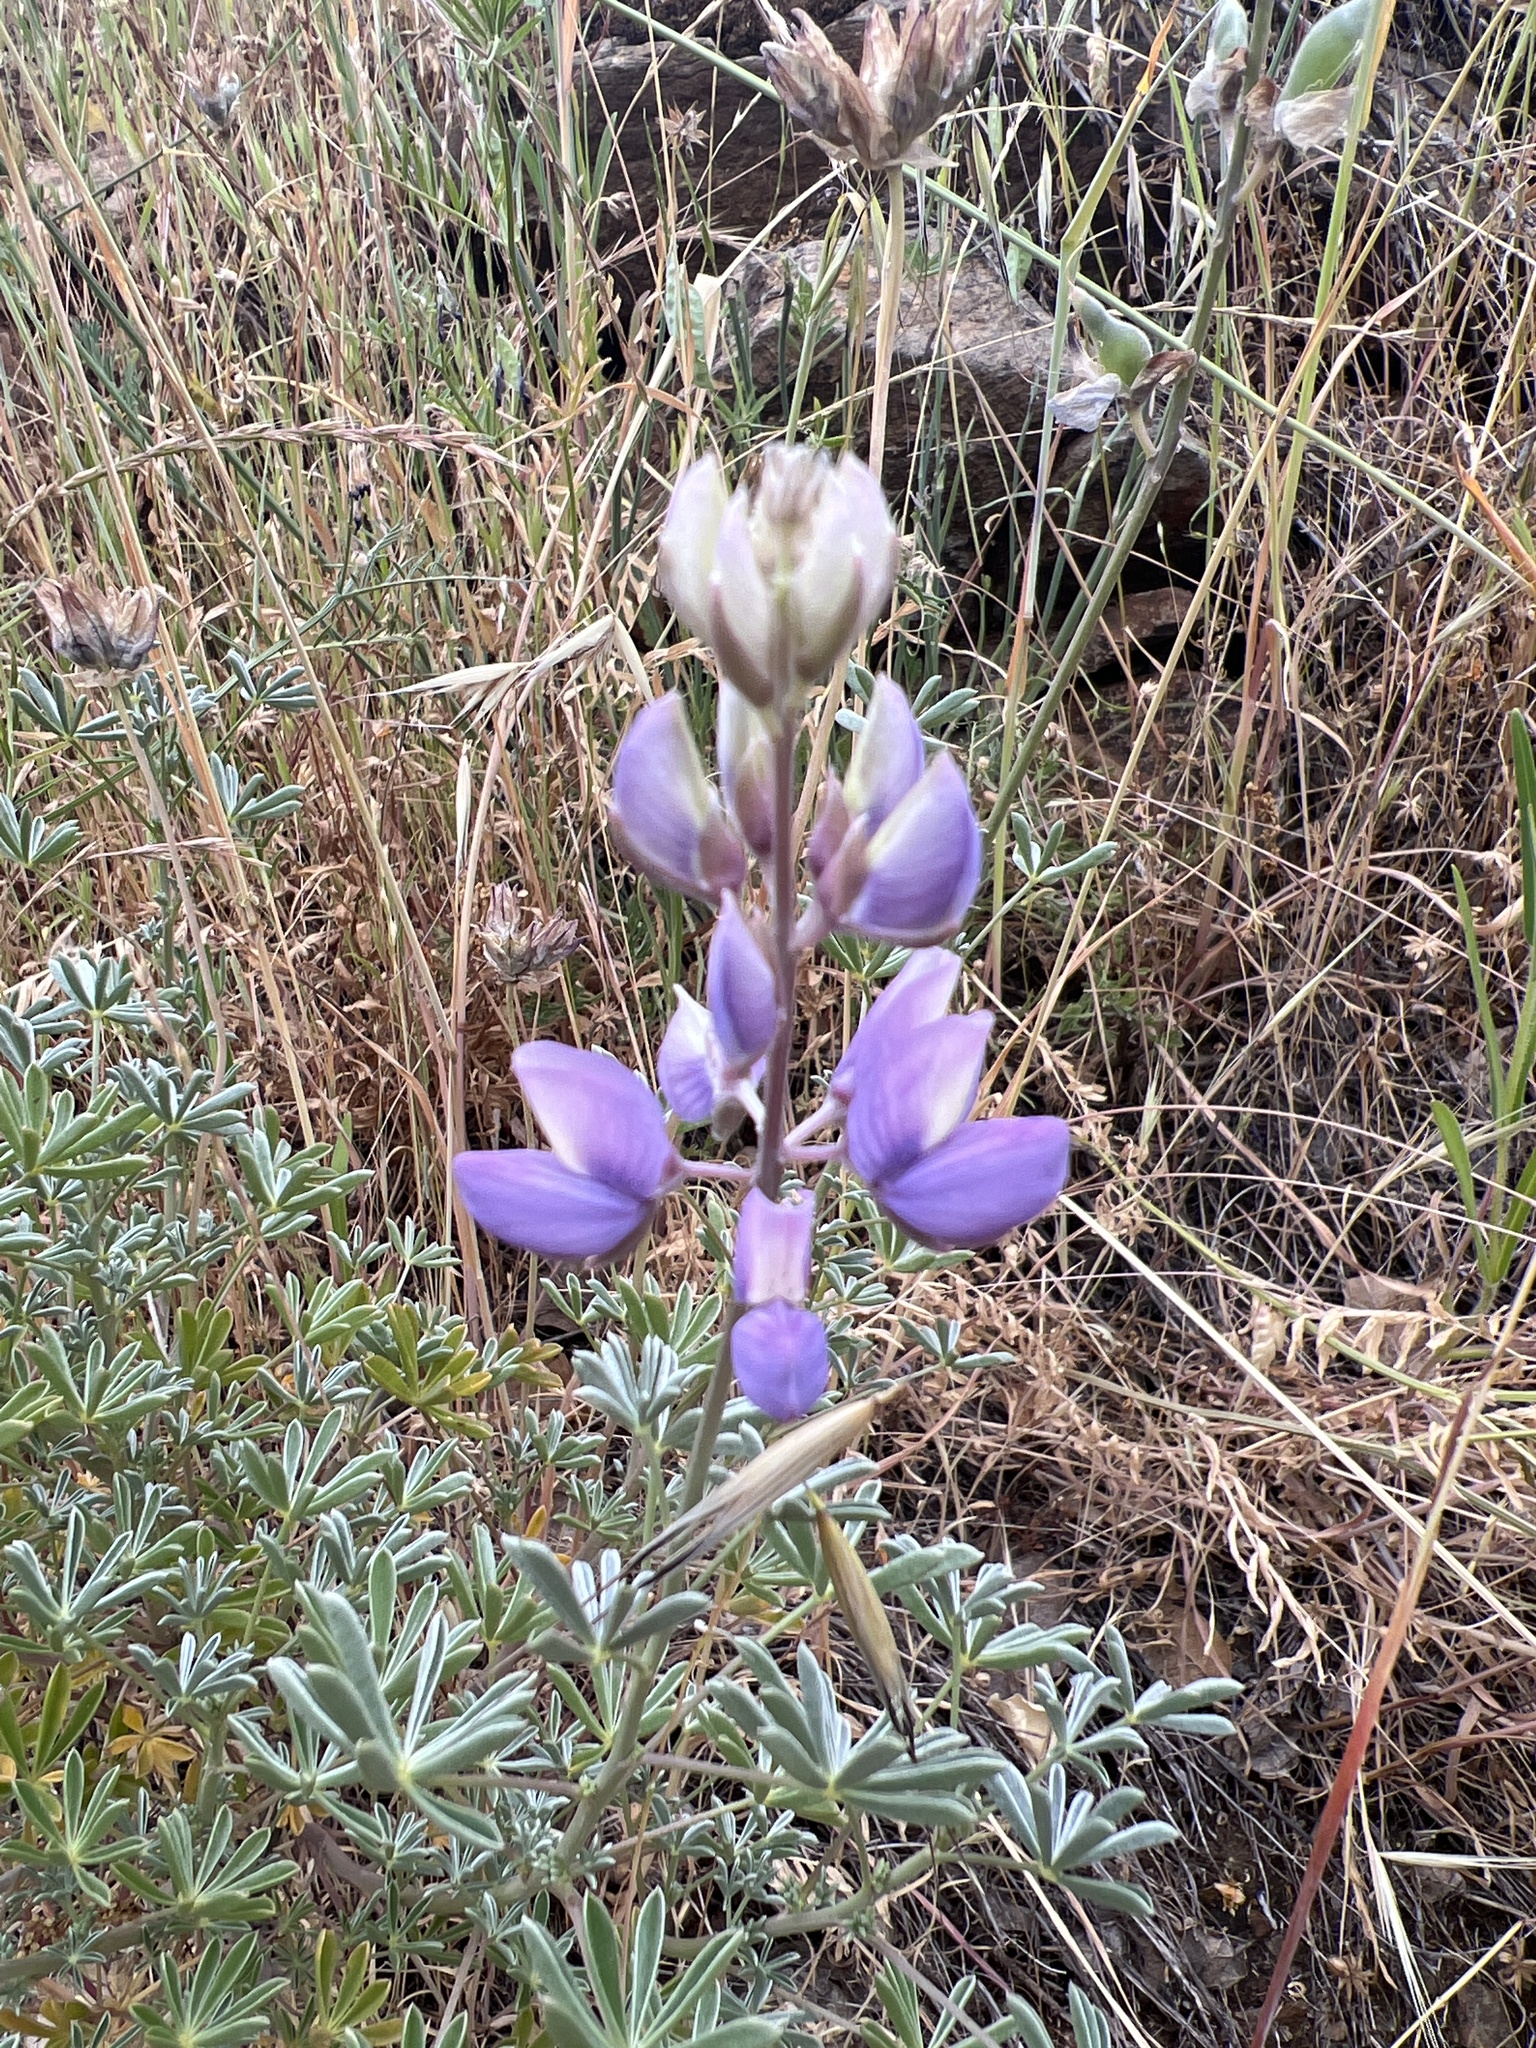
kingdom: Plantae
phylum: Tracheophyta
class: Magnoliopsida
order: Fabales
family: Fabaceae
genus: Lupinus
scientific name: Lupinus albifrons
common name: Foothill lupine
